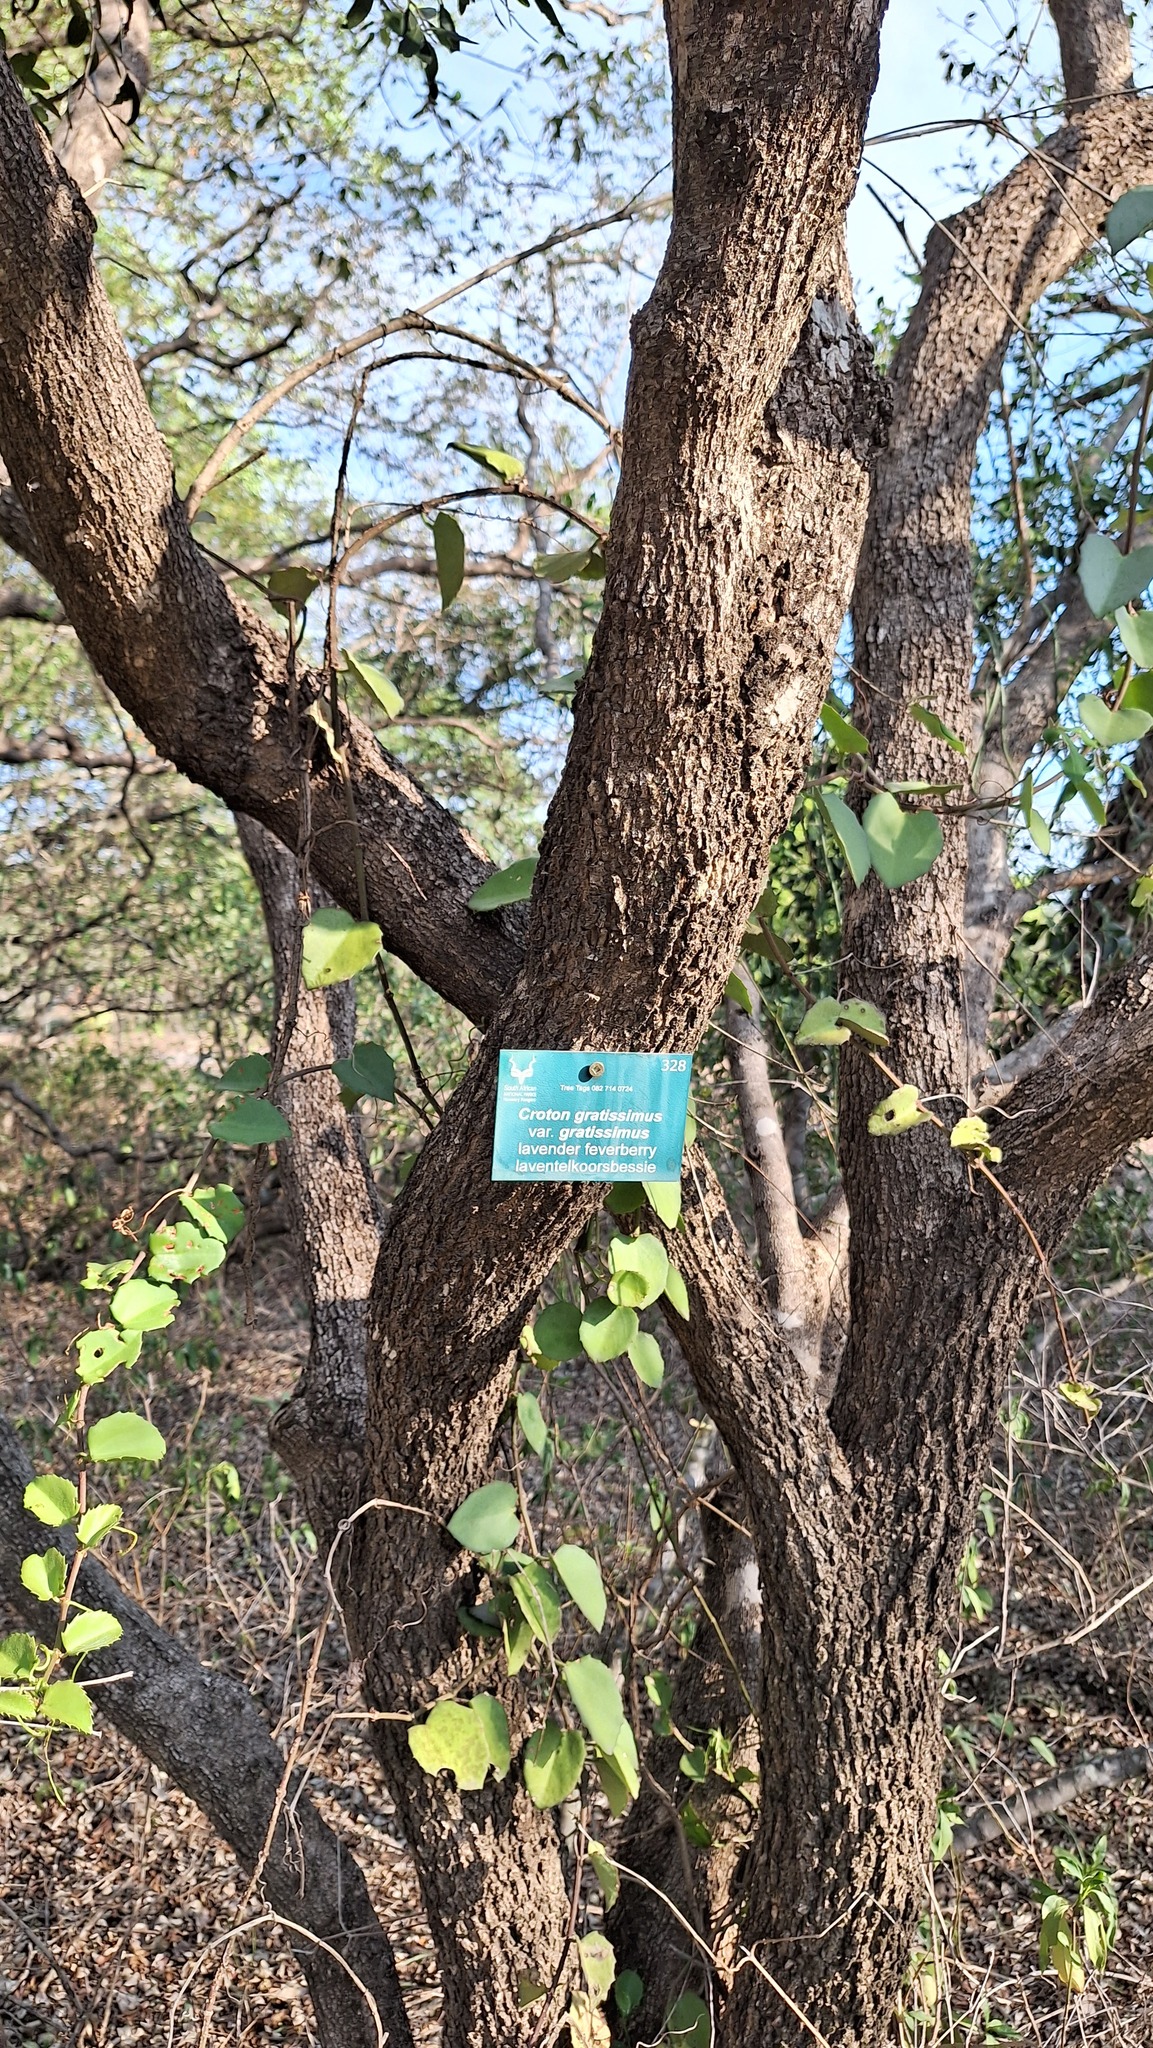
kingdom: Plantae
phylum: Tracheophyta
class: Magnoliopsida
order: Malpighiales
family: Euphorbiaceae
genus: Croton
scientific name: Croton gratissimus
